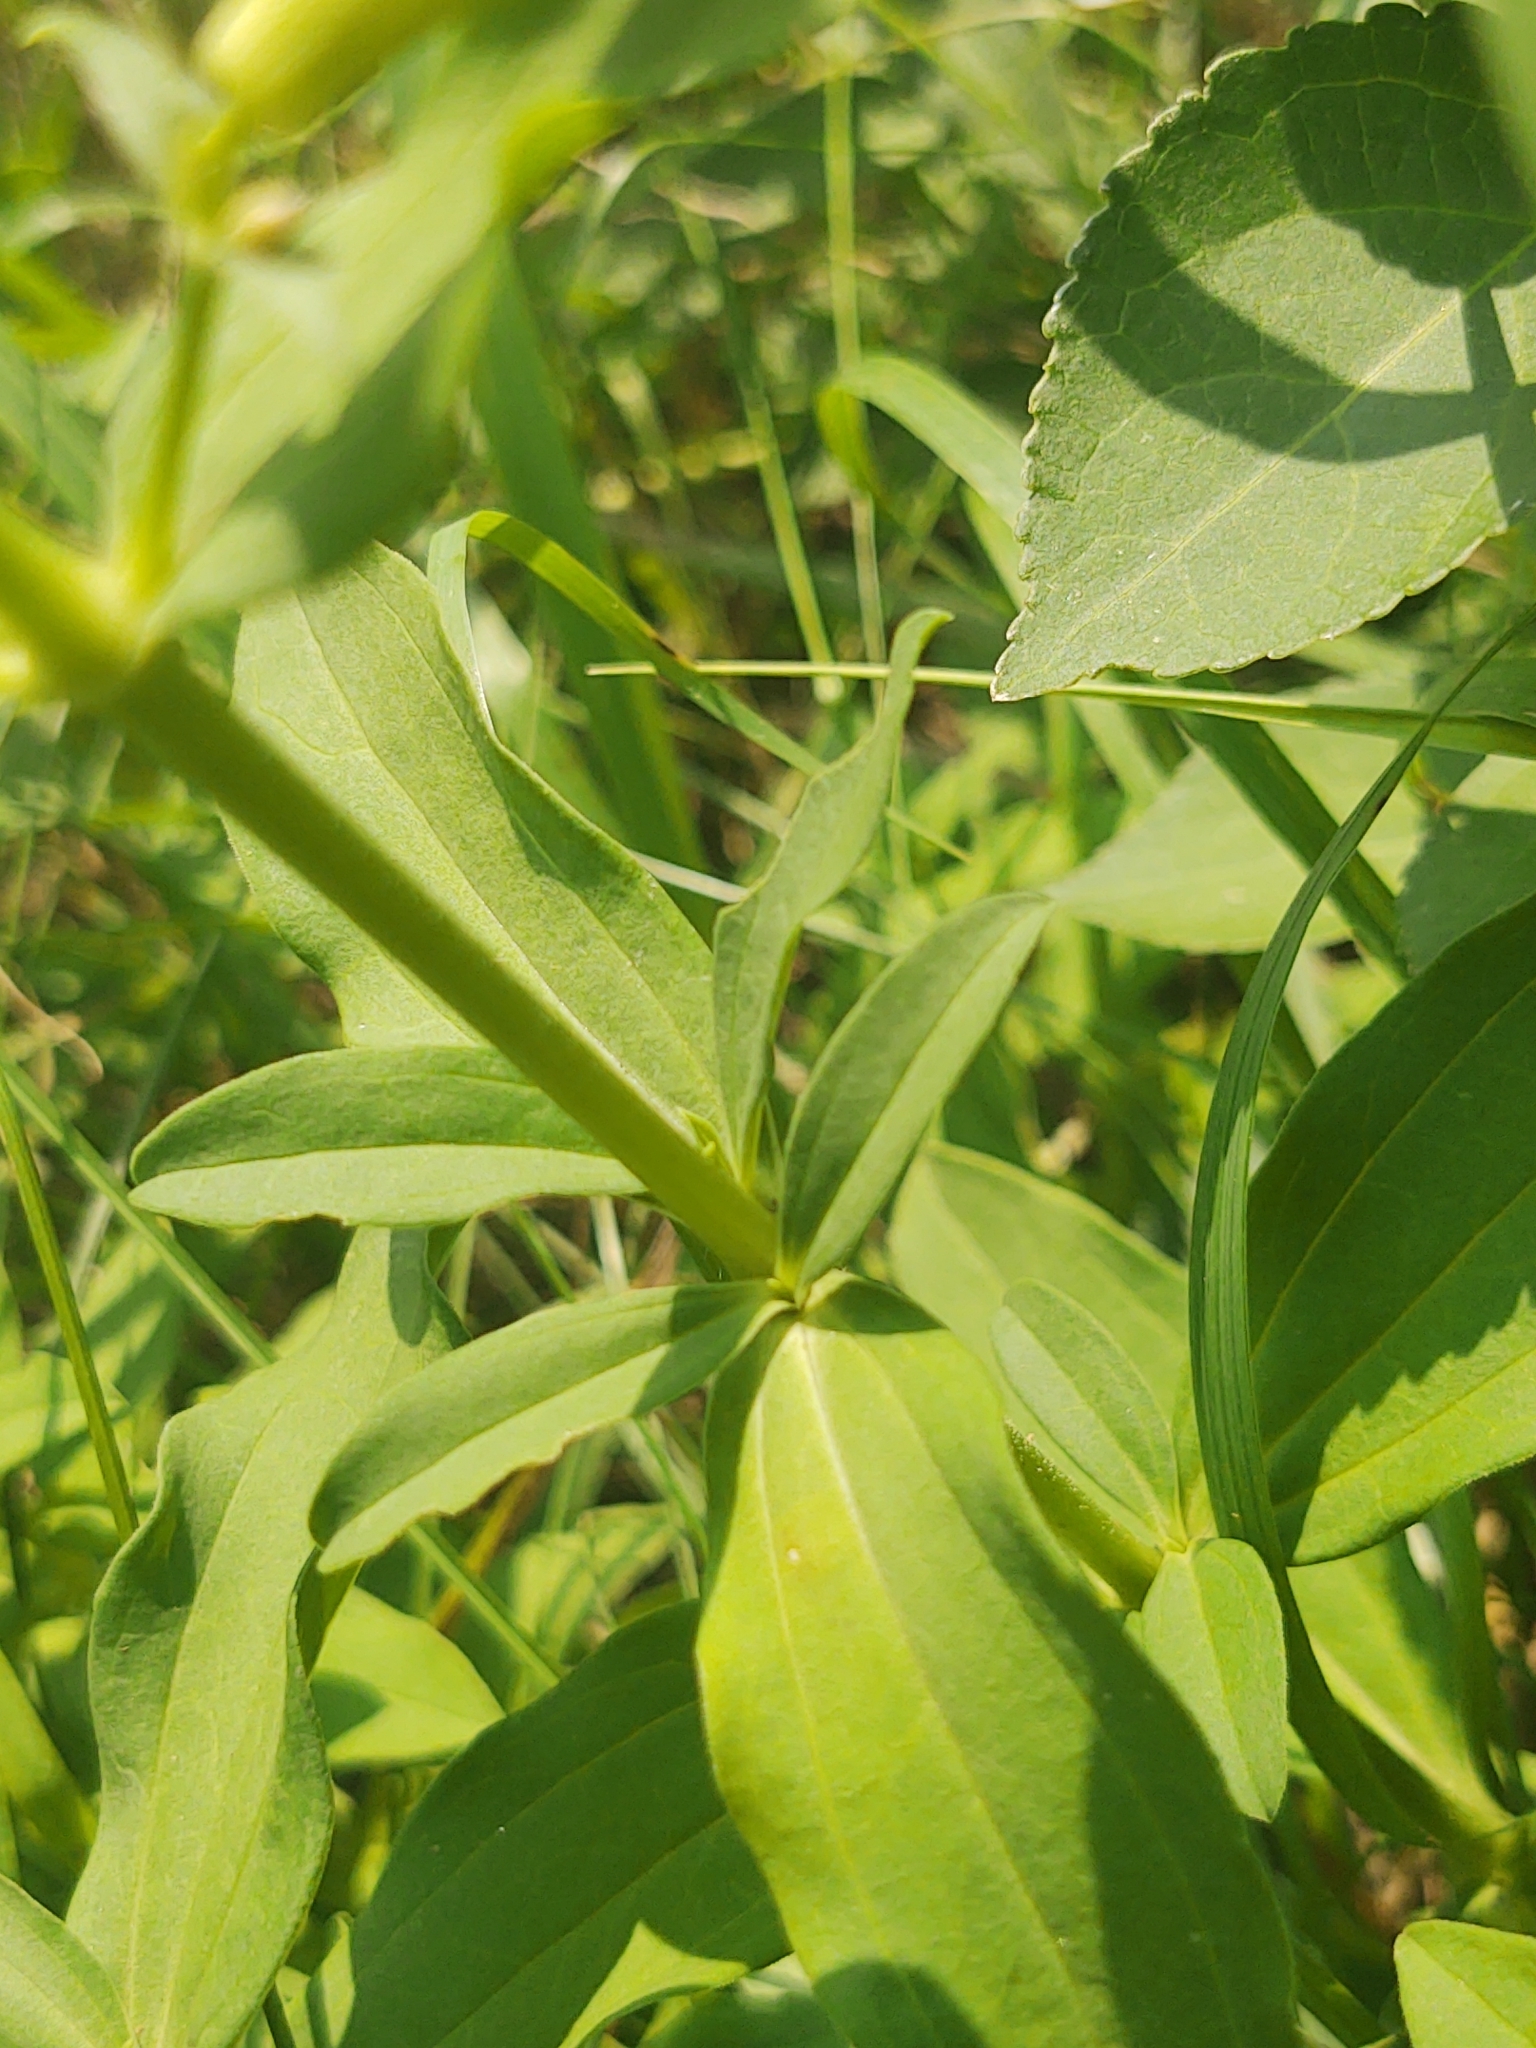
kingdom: Plantae
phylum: Tracheophyta
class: Magnoliopsida
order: Caryophyllales
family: Caryophyllaceae
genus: Saponaria
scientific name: Saponaria officinalis
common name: Soapwort
